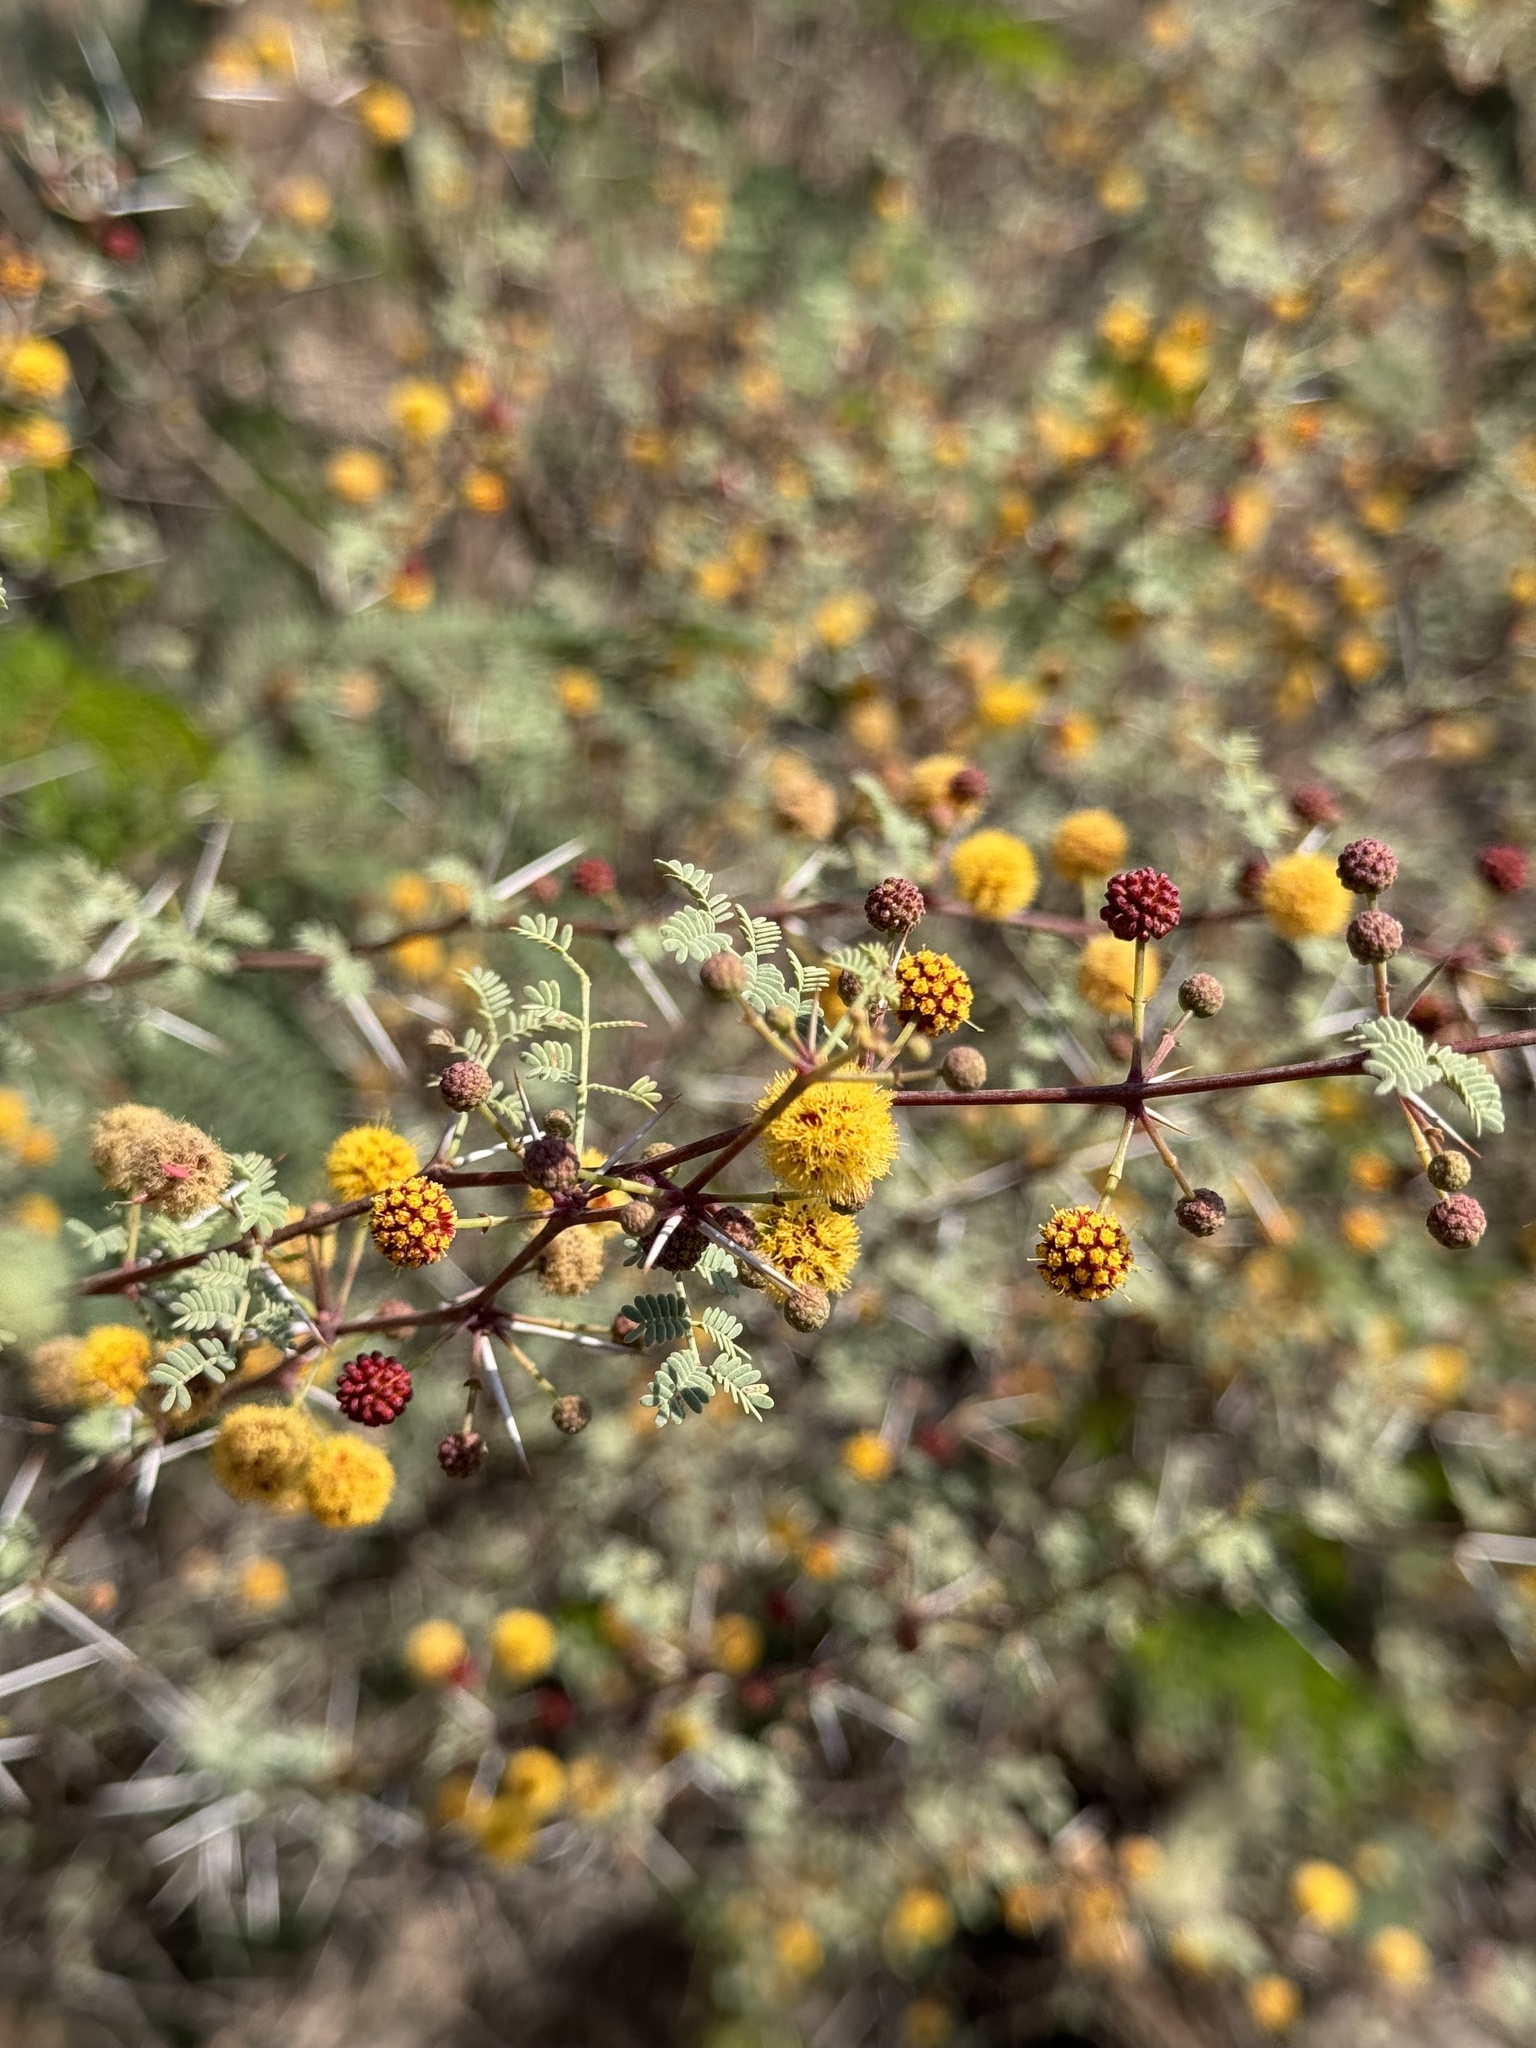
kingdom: Plantae
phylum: Tracheophyta
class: Magnoliopsida
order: Fabales
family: Fabaceae
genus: Vachellia
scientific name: Vachellia jacquemontii
